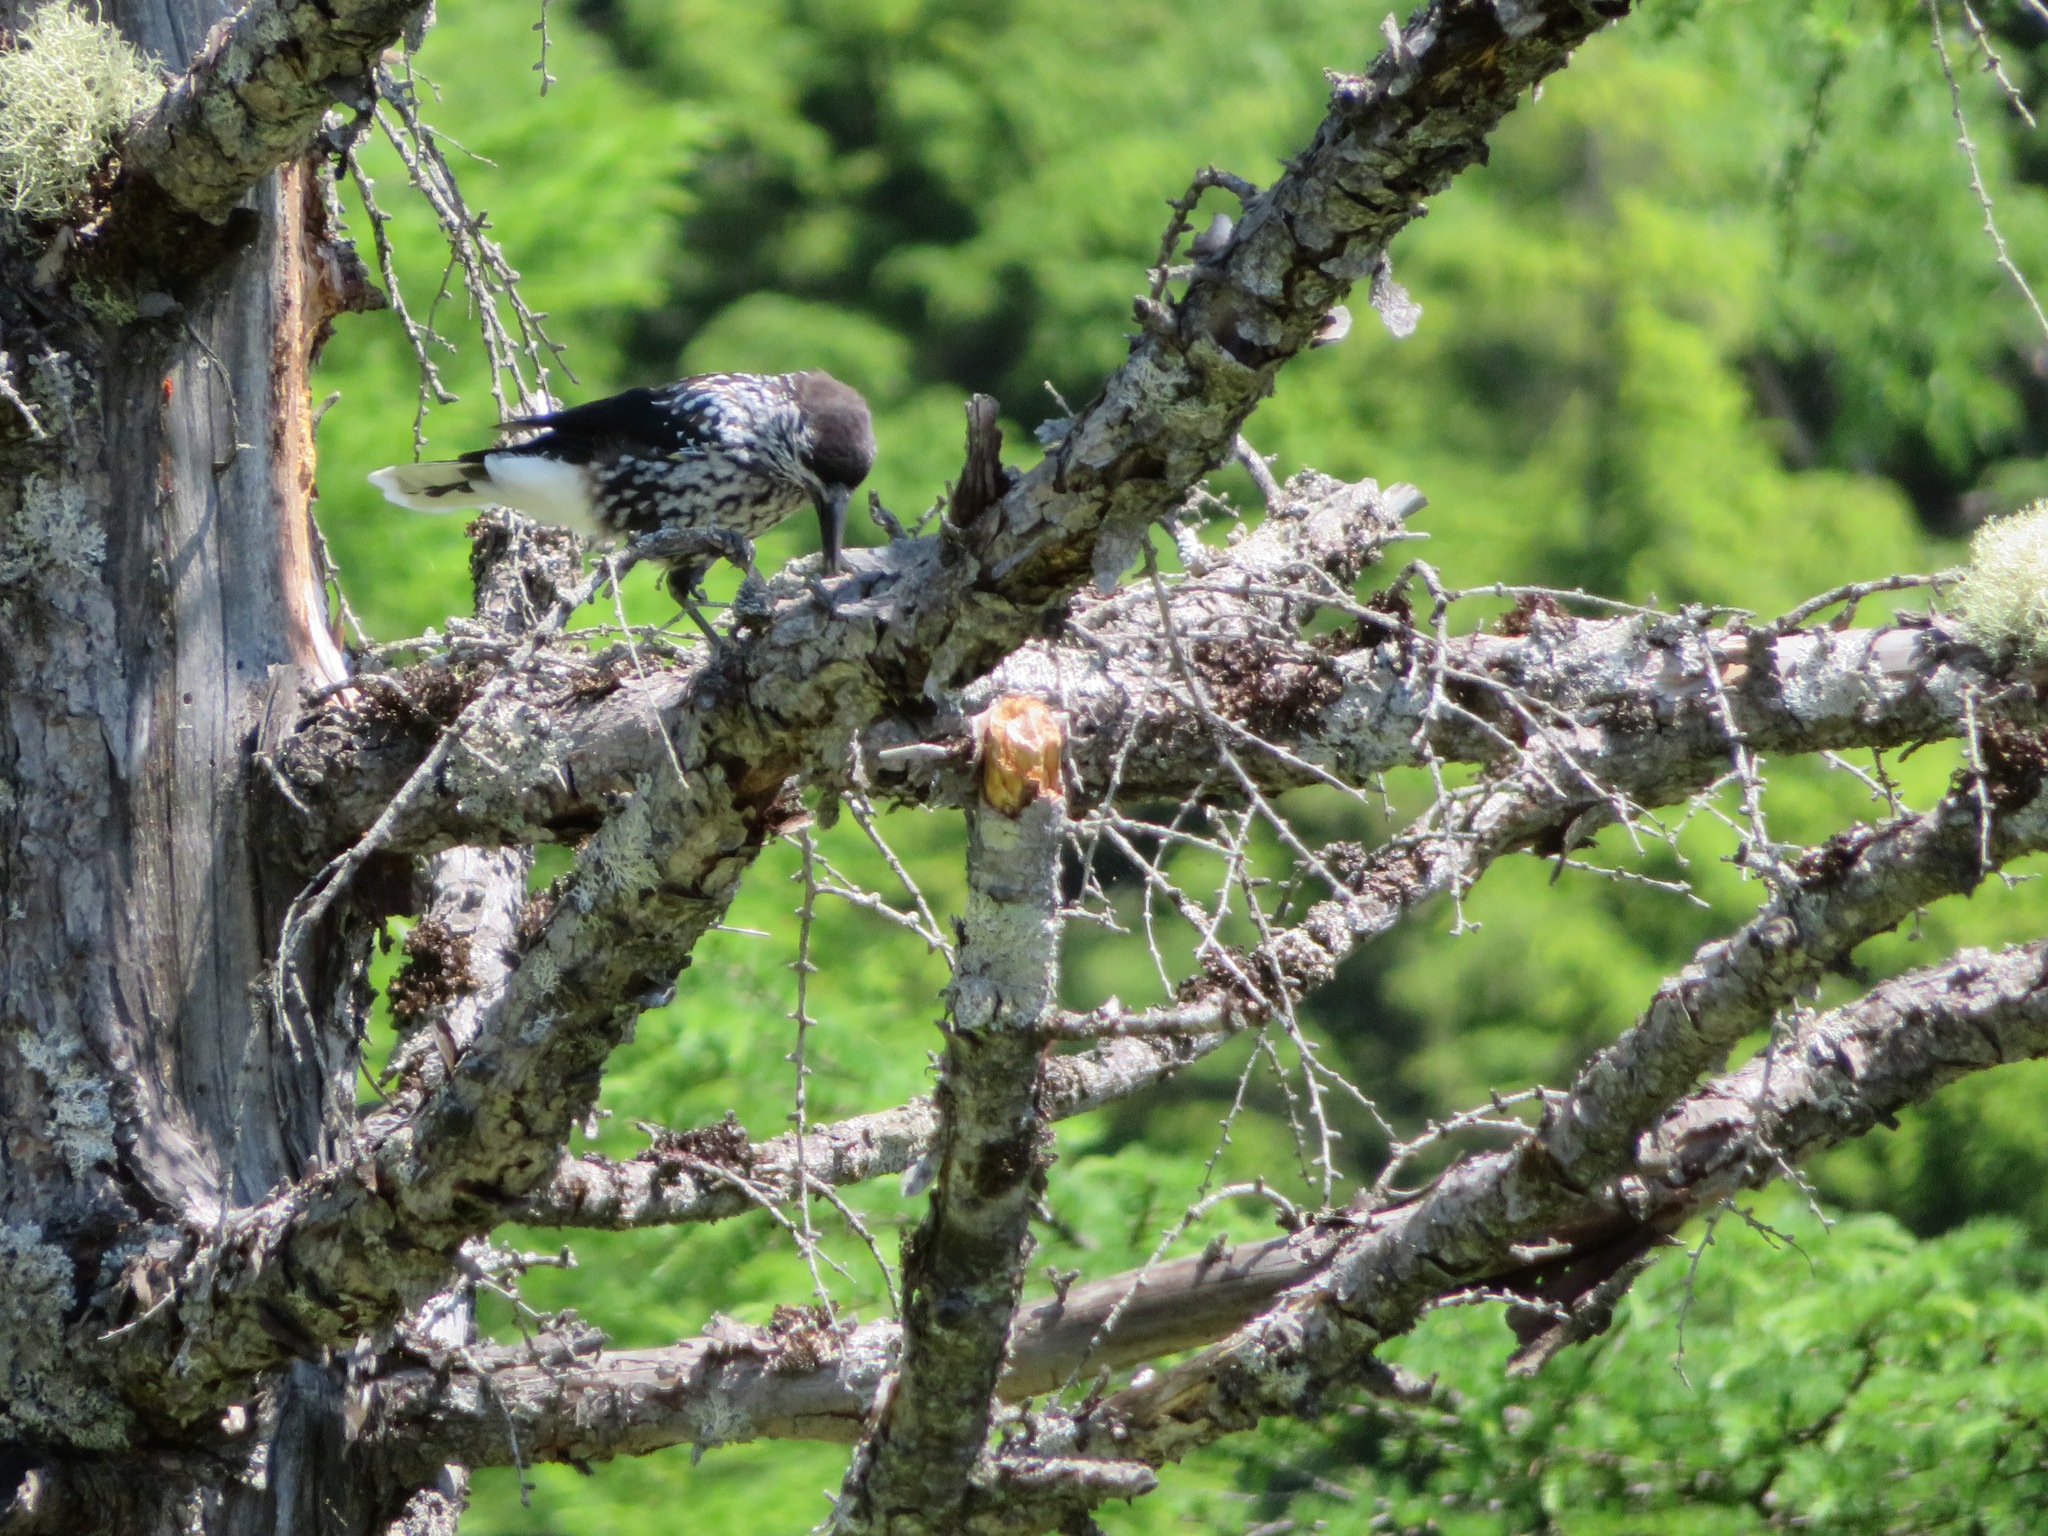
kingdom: Animalia
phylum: Chordata
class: Aves
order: Passeriformes
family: Corvidae
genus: Nucifraga
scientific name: Nucifraga caryocatactes
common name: Spotted nutcracker
